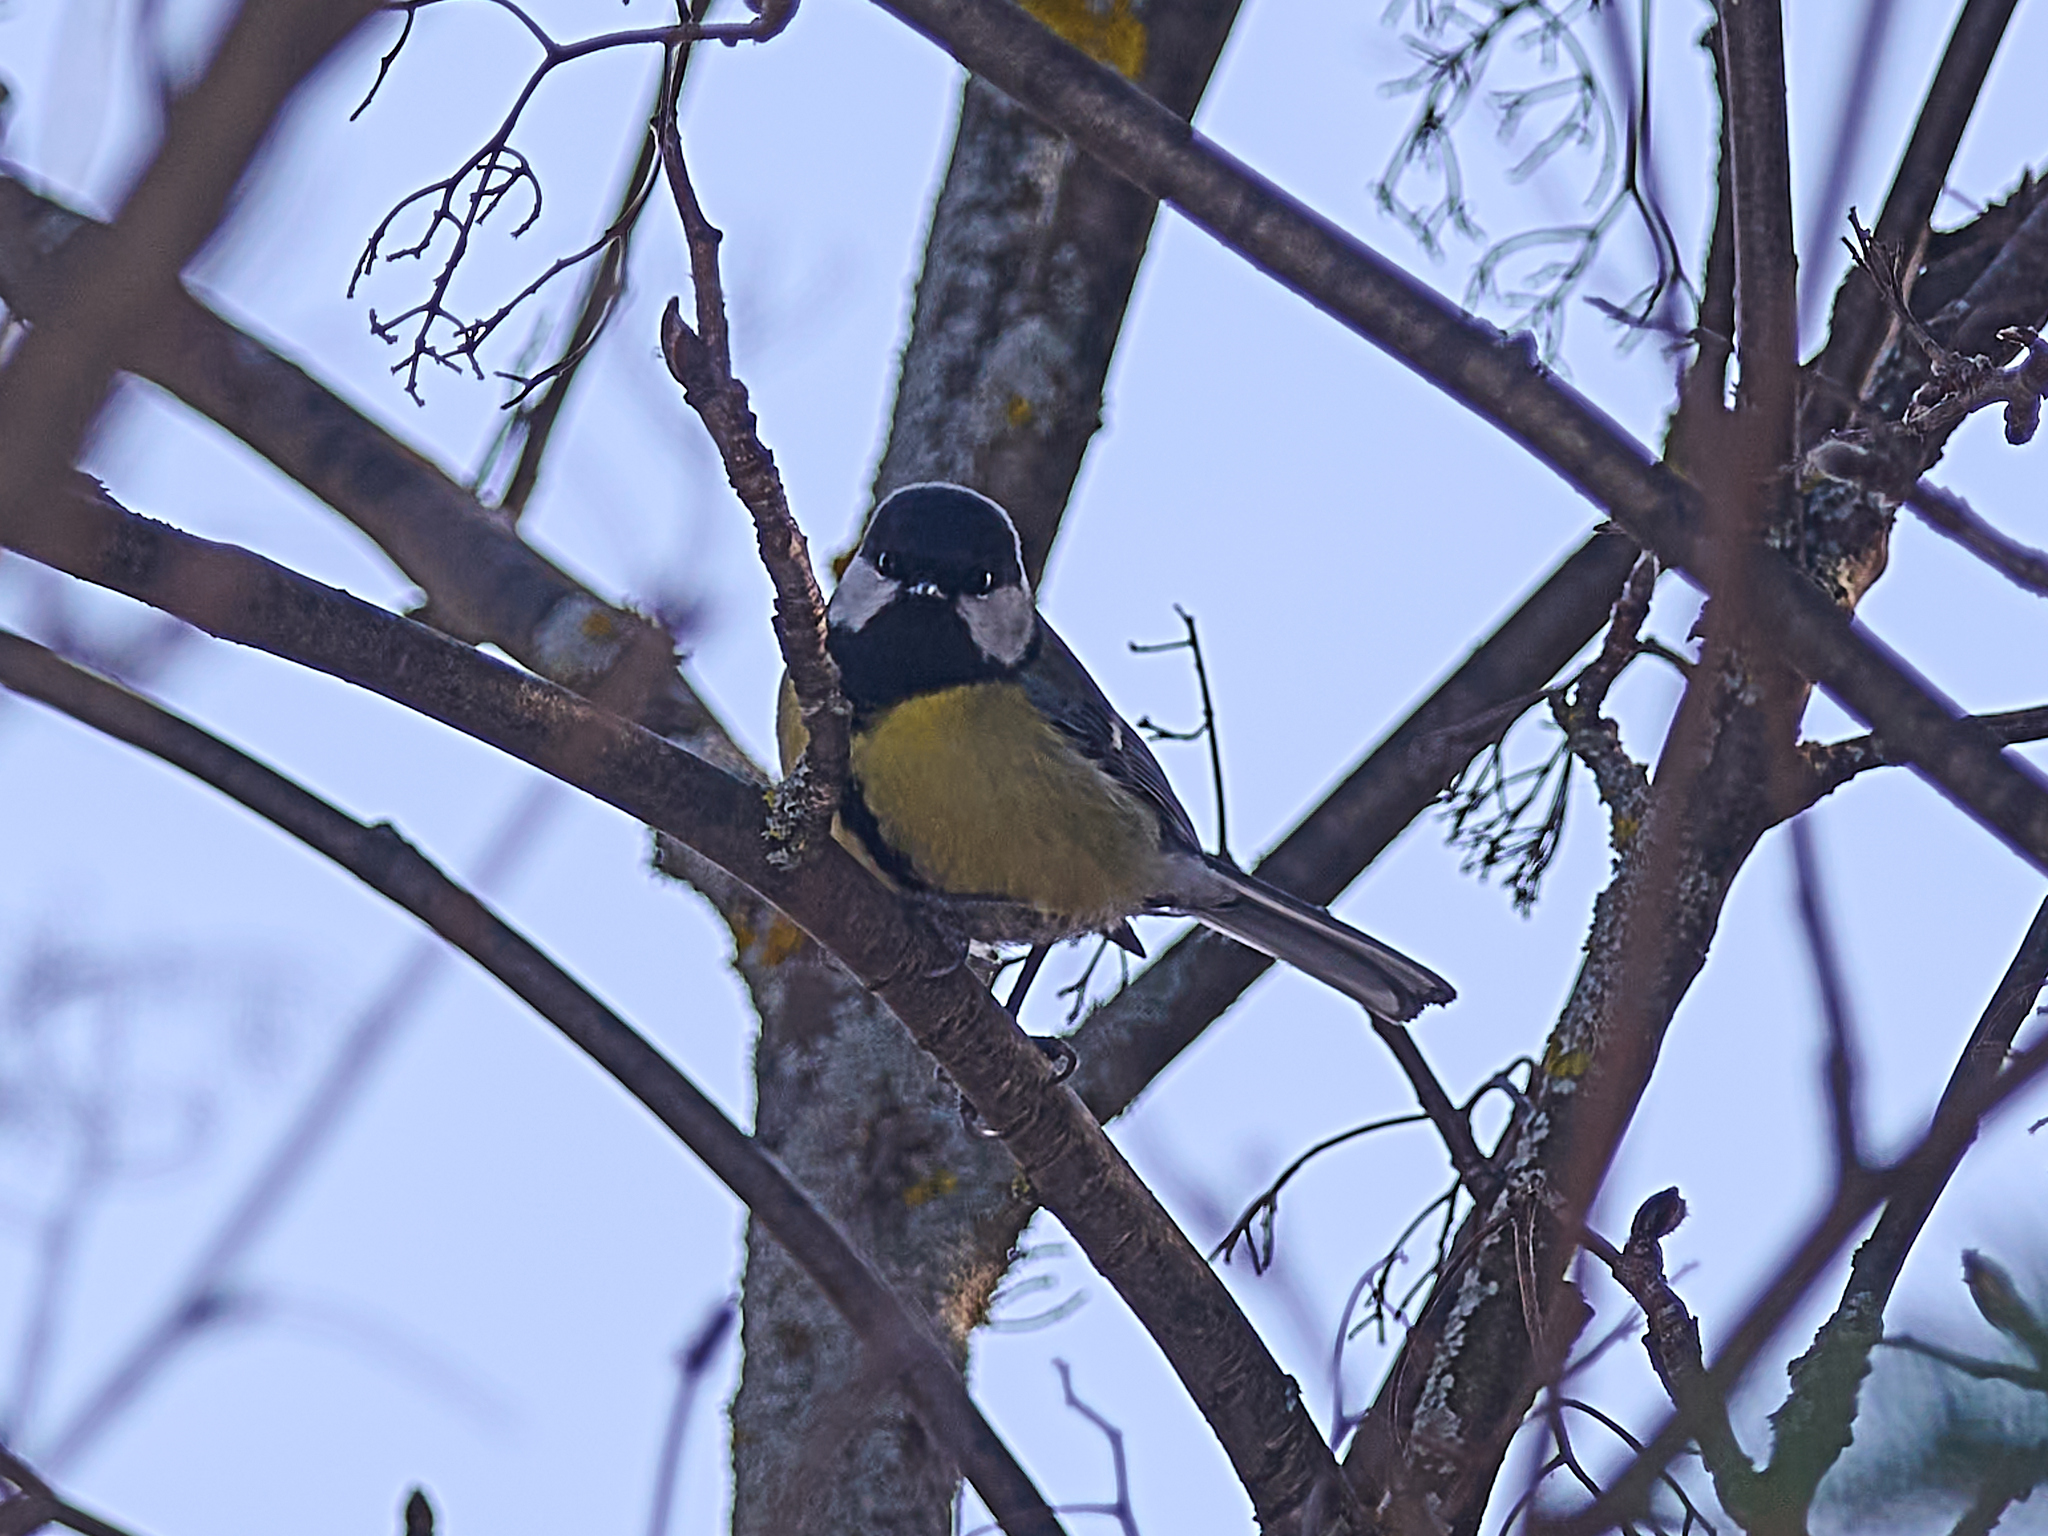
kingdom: Animalia
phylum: Chordata
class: Aves
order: Passeriformes
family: Paridae
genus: Parus
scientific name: Parus major
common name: Great tit
